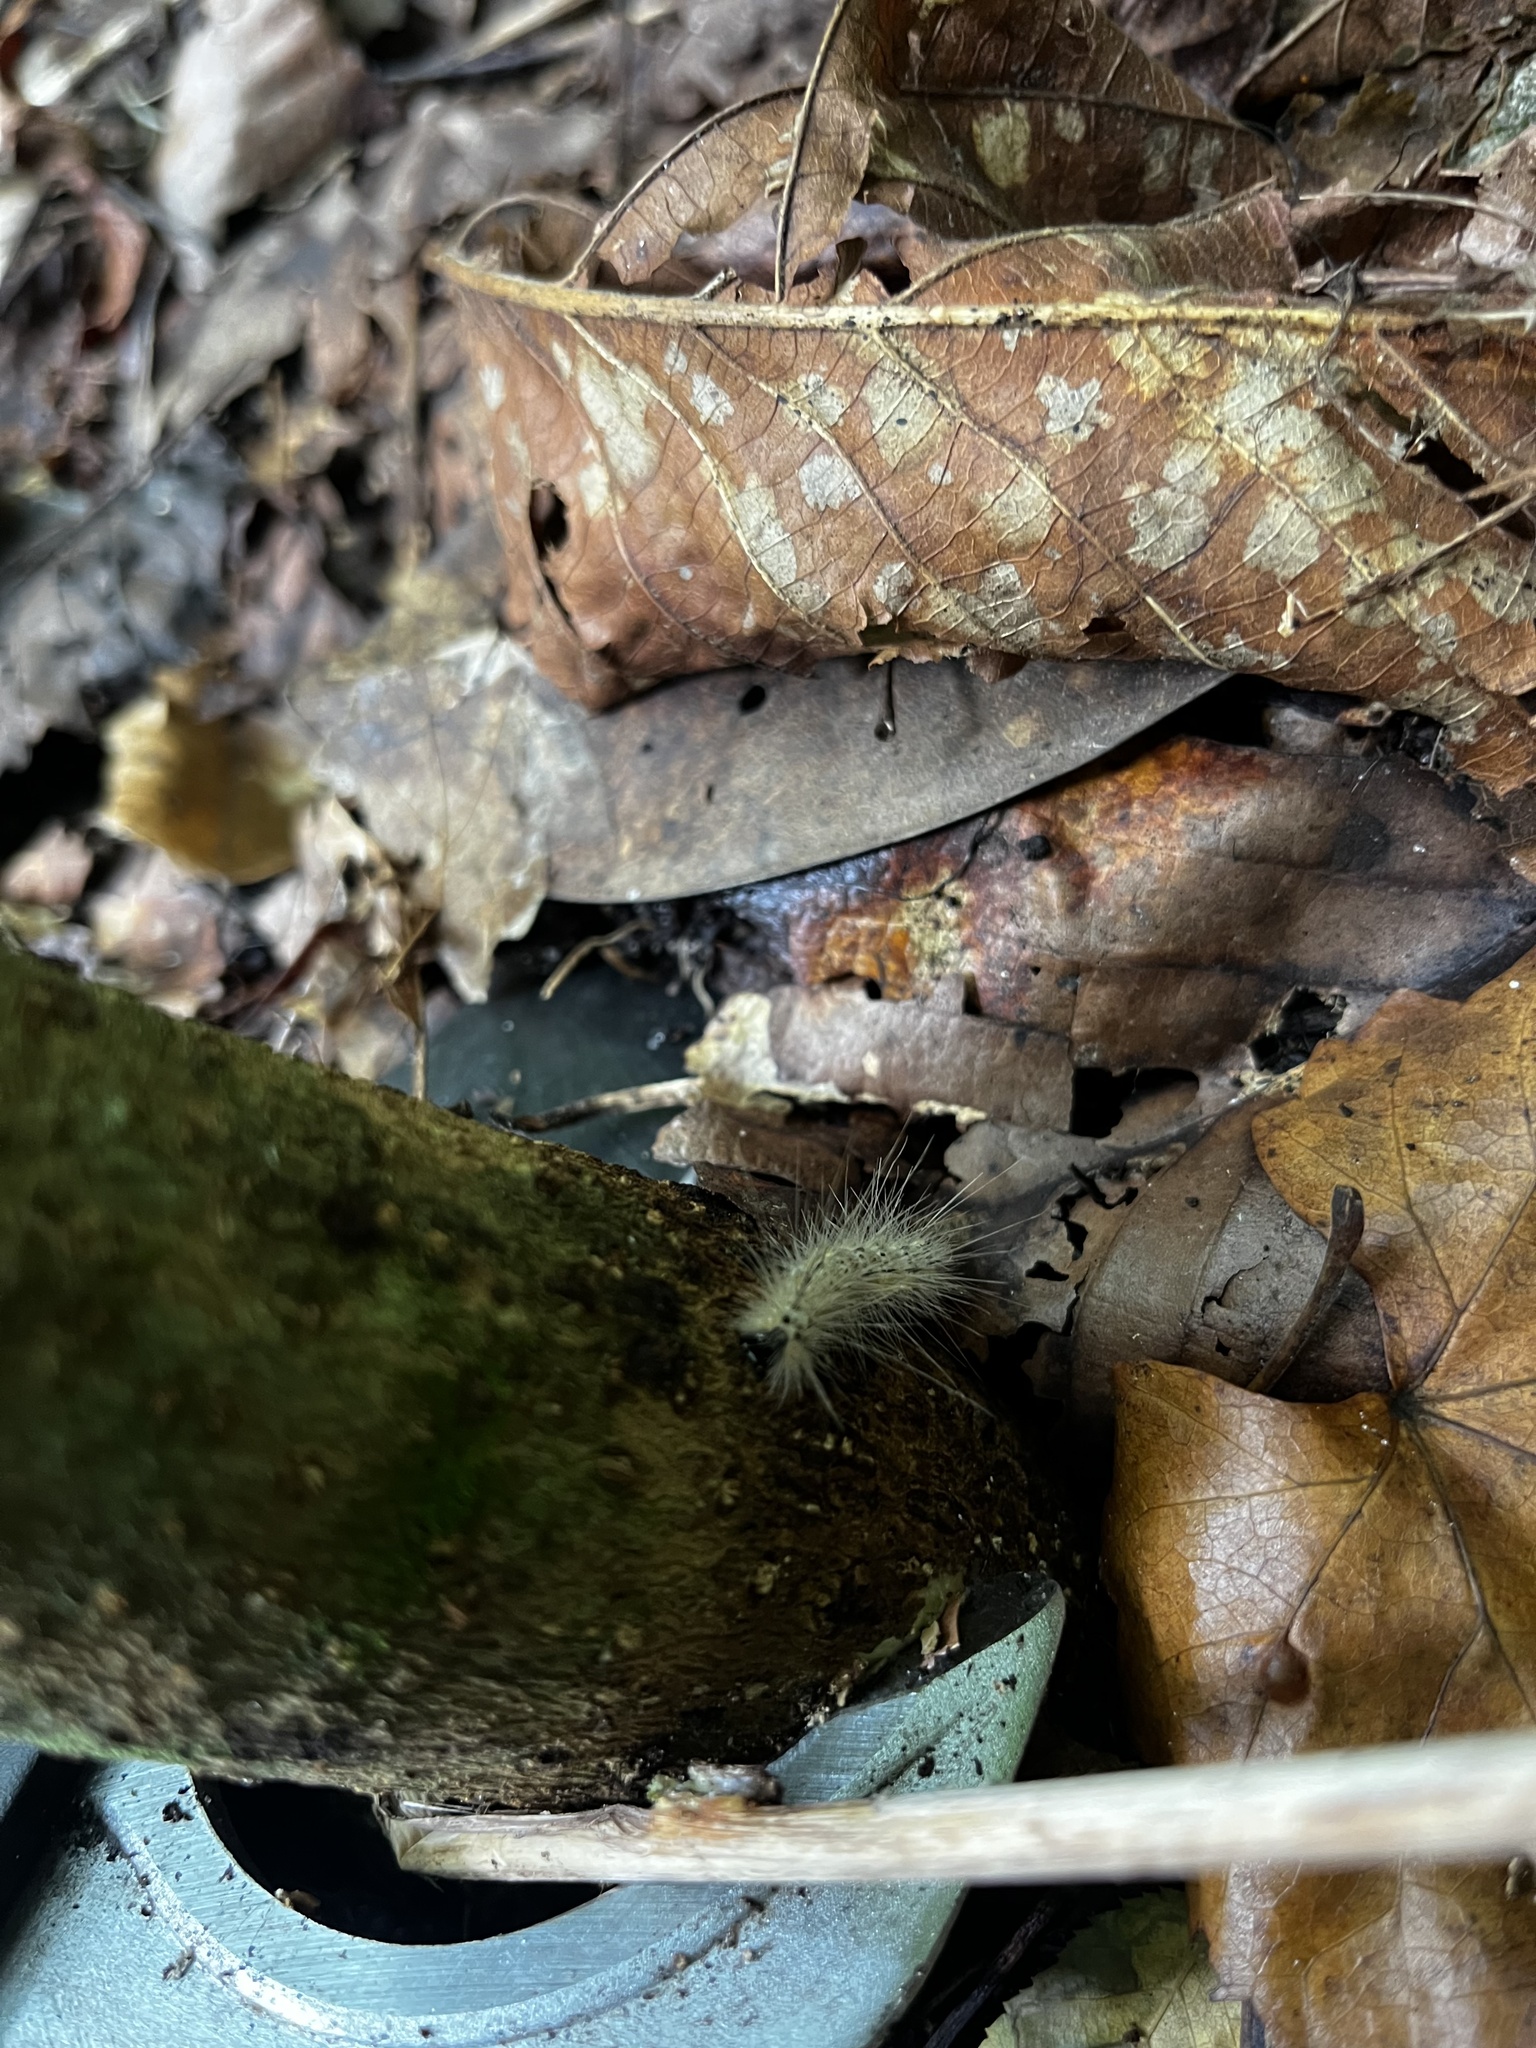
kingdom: Animalia
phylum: Arthropoda
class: Insecta
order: Lepidoptera
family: Erebidae
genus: Hyphantria
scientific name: Hyphantria cunea
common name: American white moth
